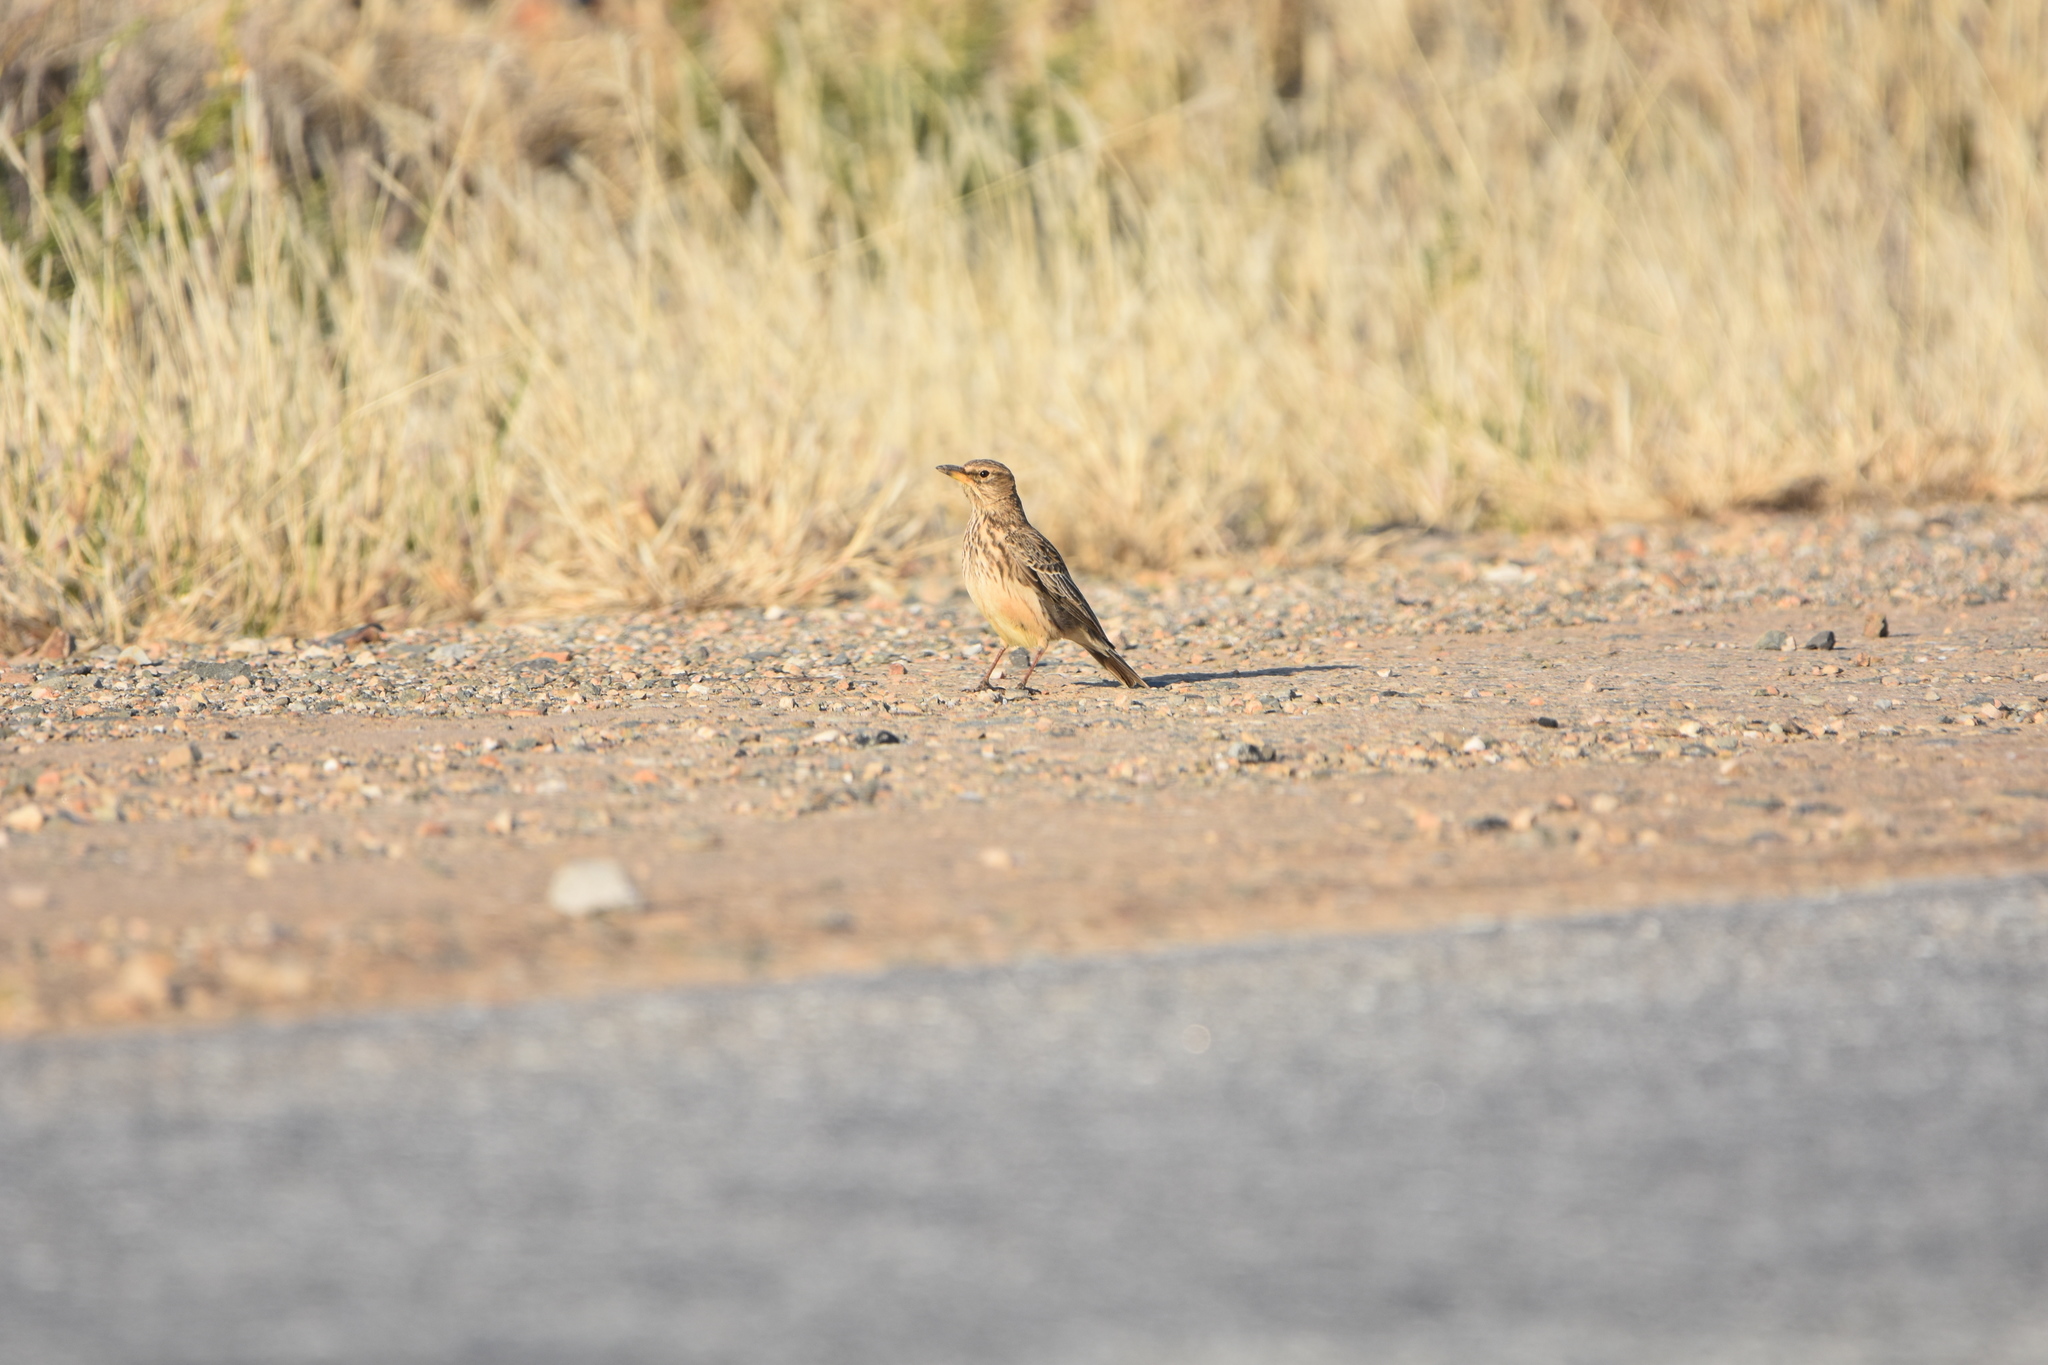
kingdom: Animalia
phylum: Chordata
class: Aves
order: Passeriformes
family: Alaudidae
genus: Galerida
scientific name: Galerida magnirostris
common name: Large-billed lark
